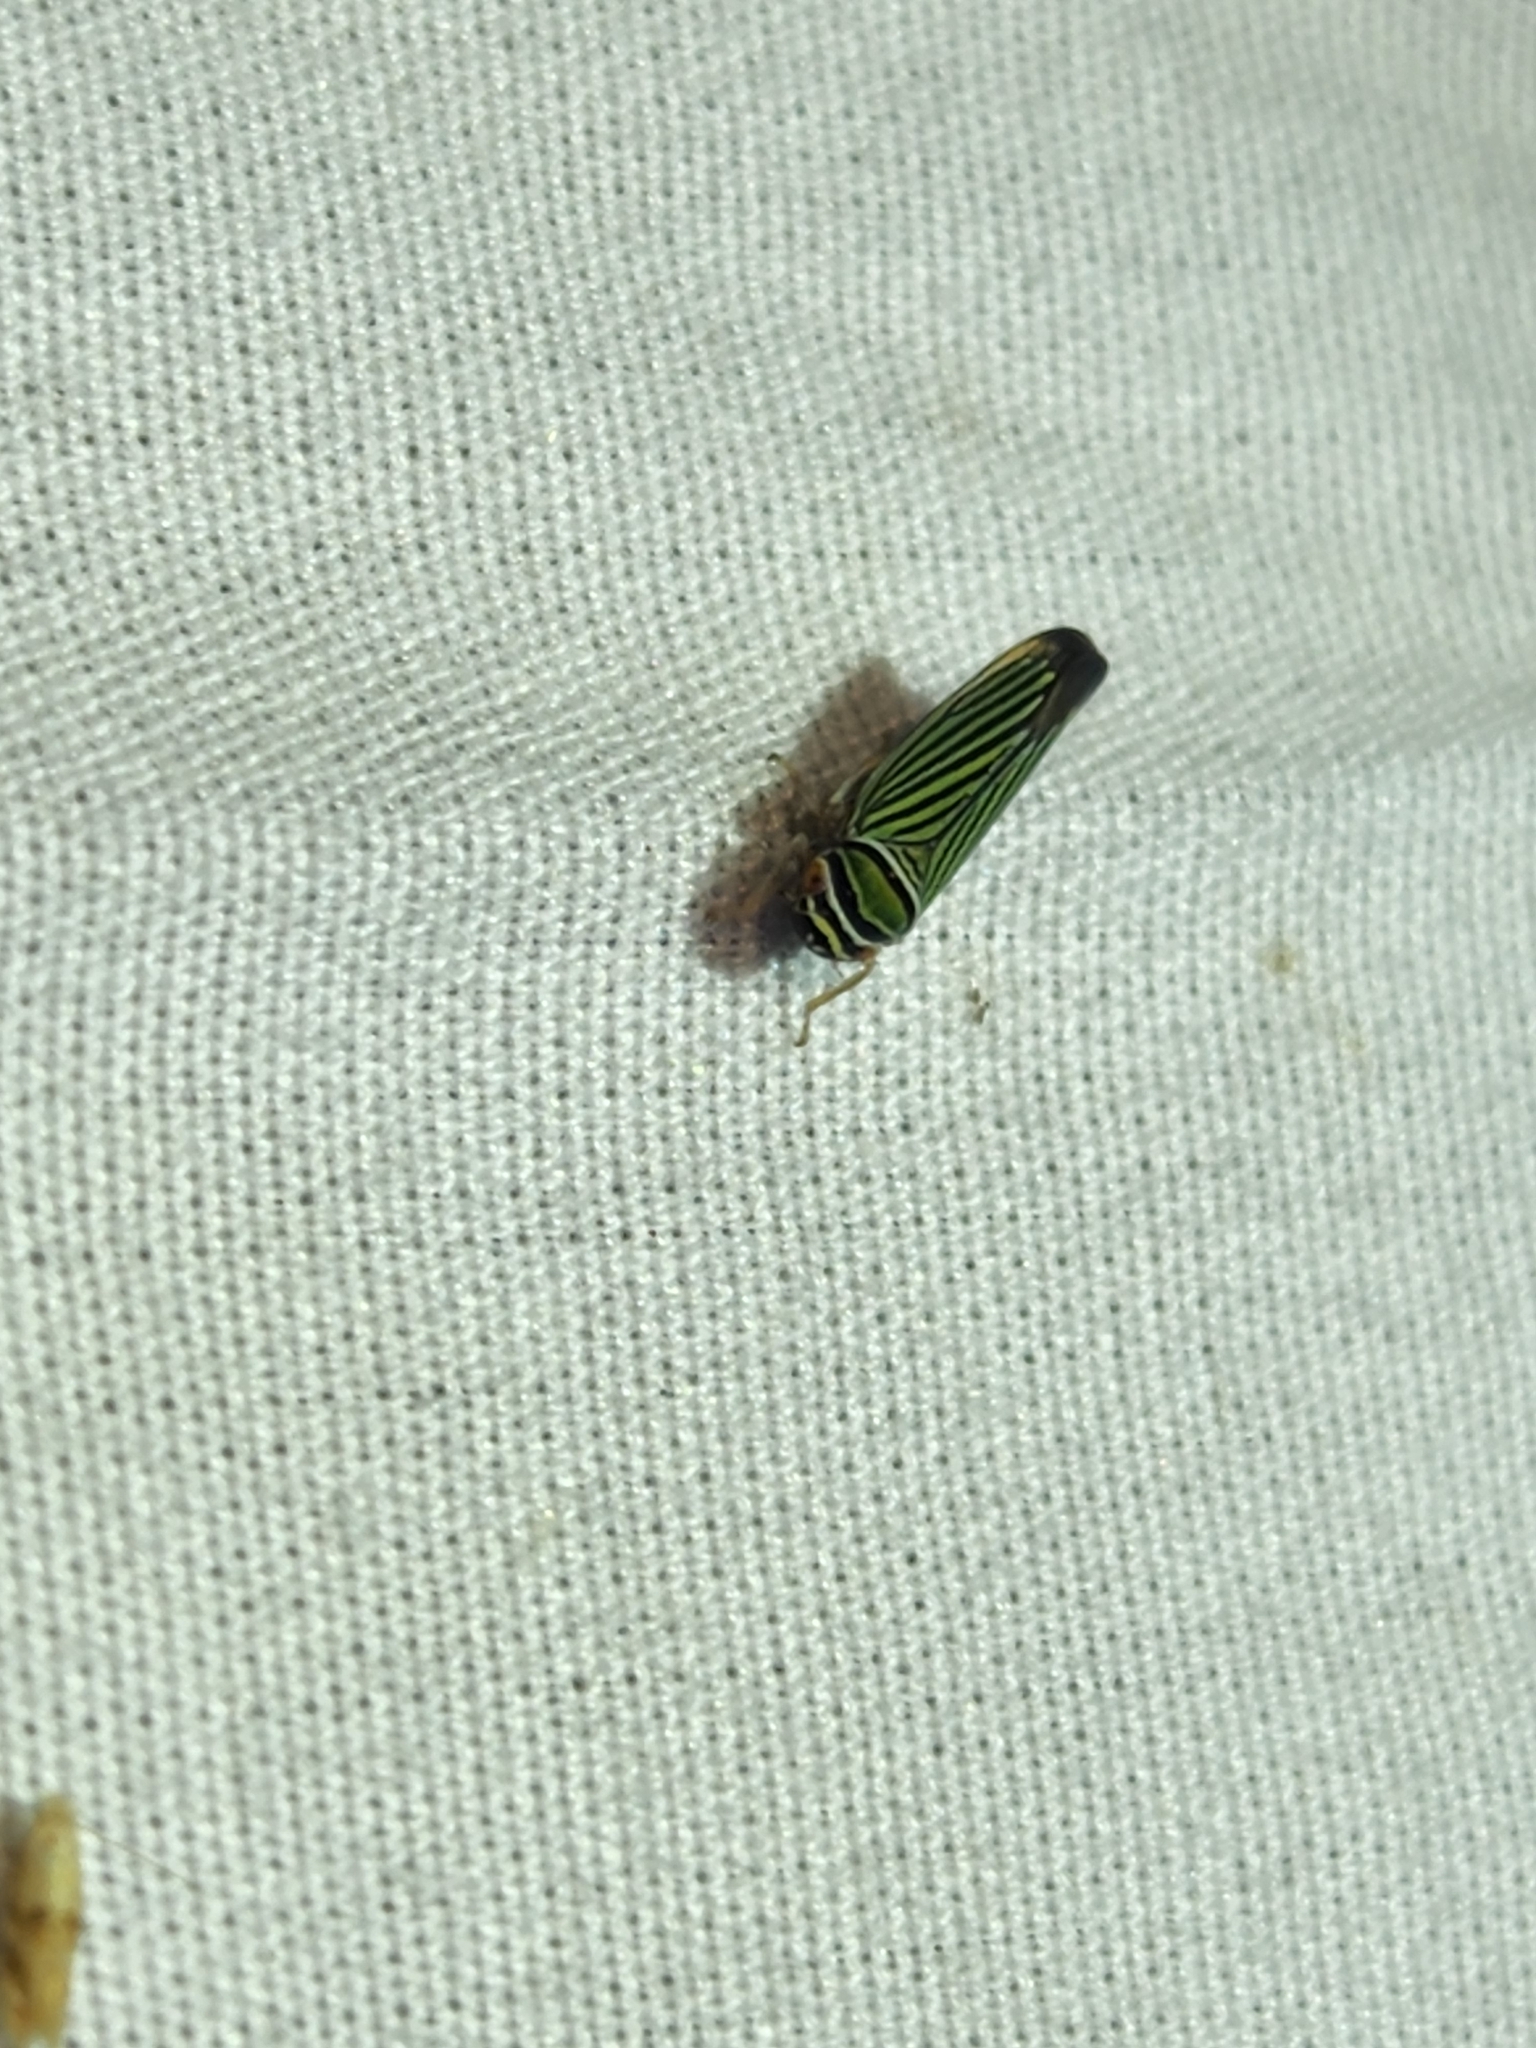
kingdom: Animalia
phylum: Arthropoda
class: Insecta
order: Hemiptera
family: Cicadellidae
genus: Tylozygus
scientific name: Tylozygus bifidus
